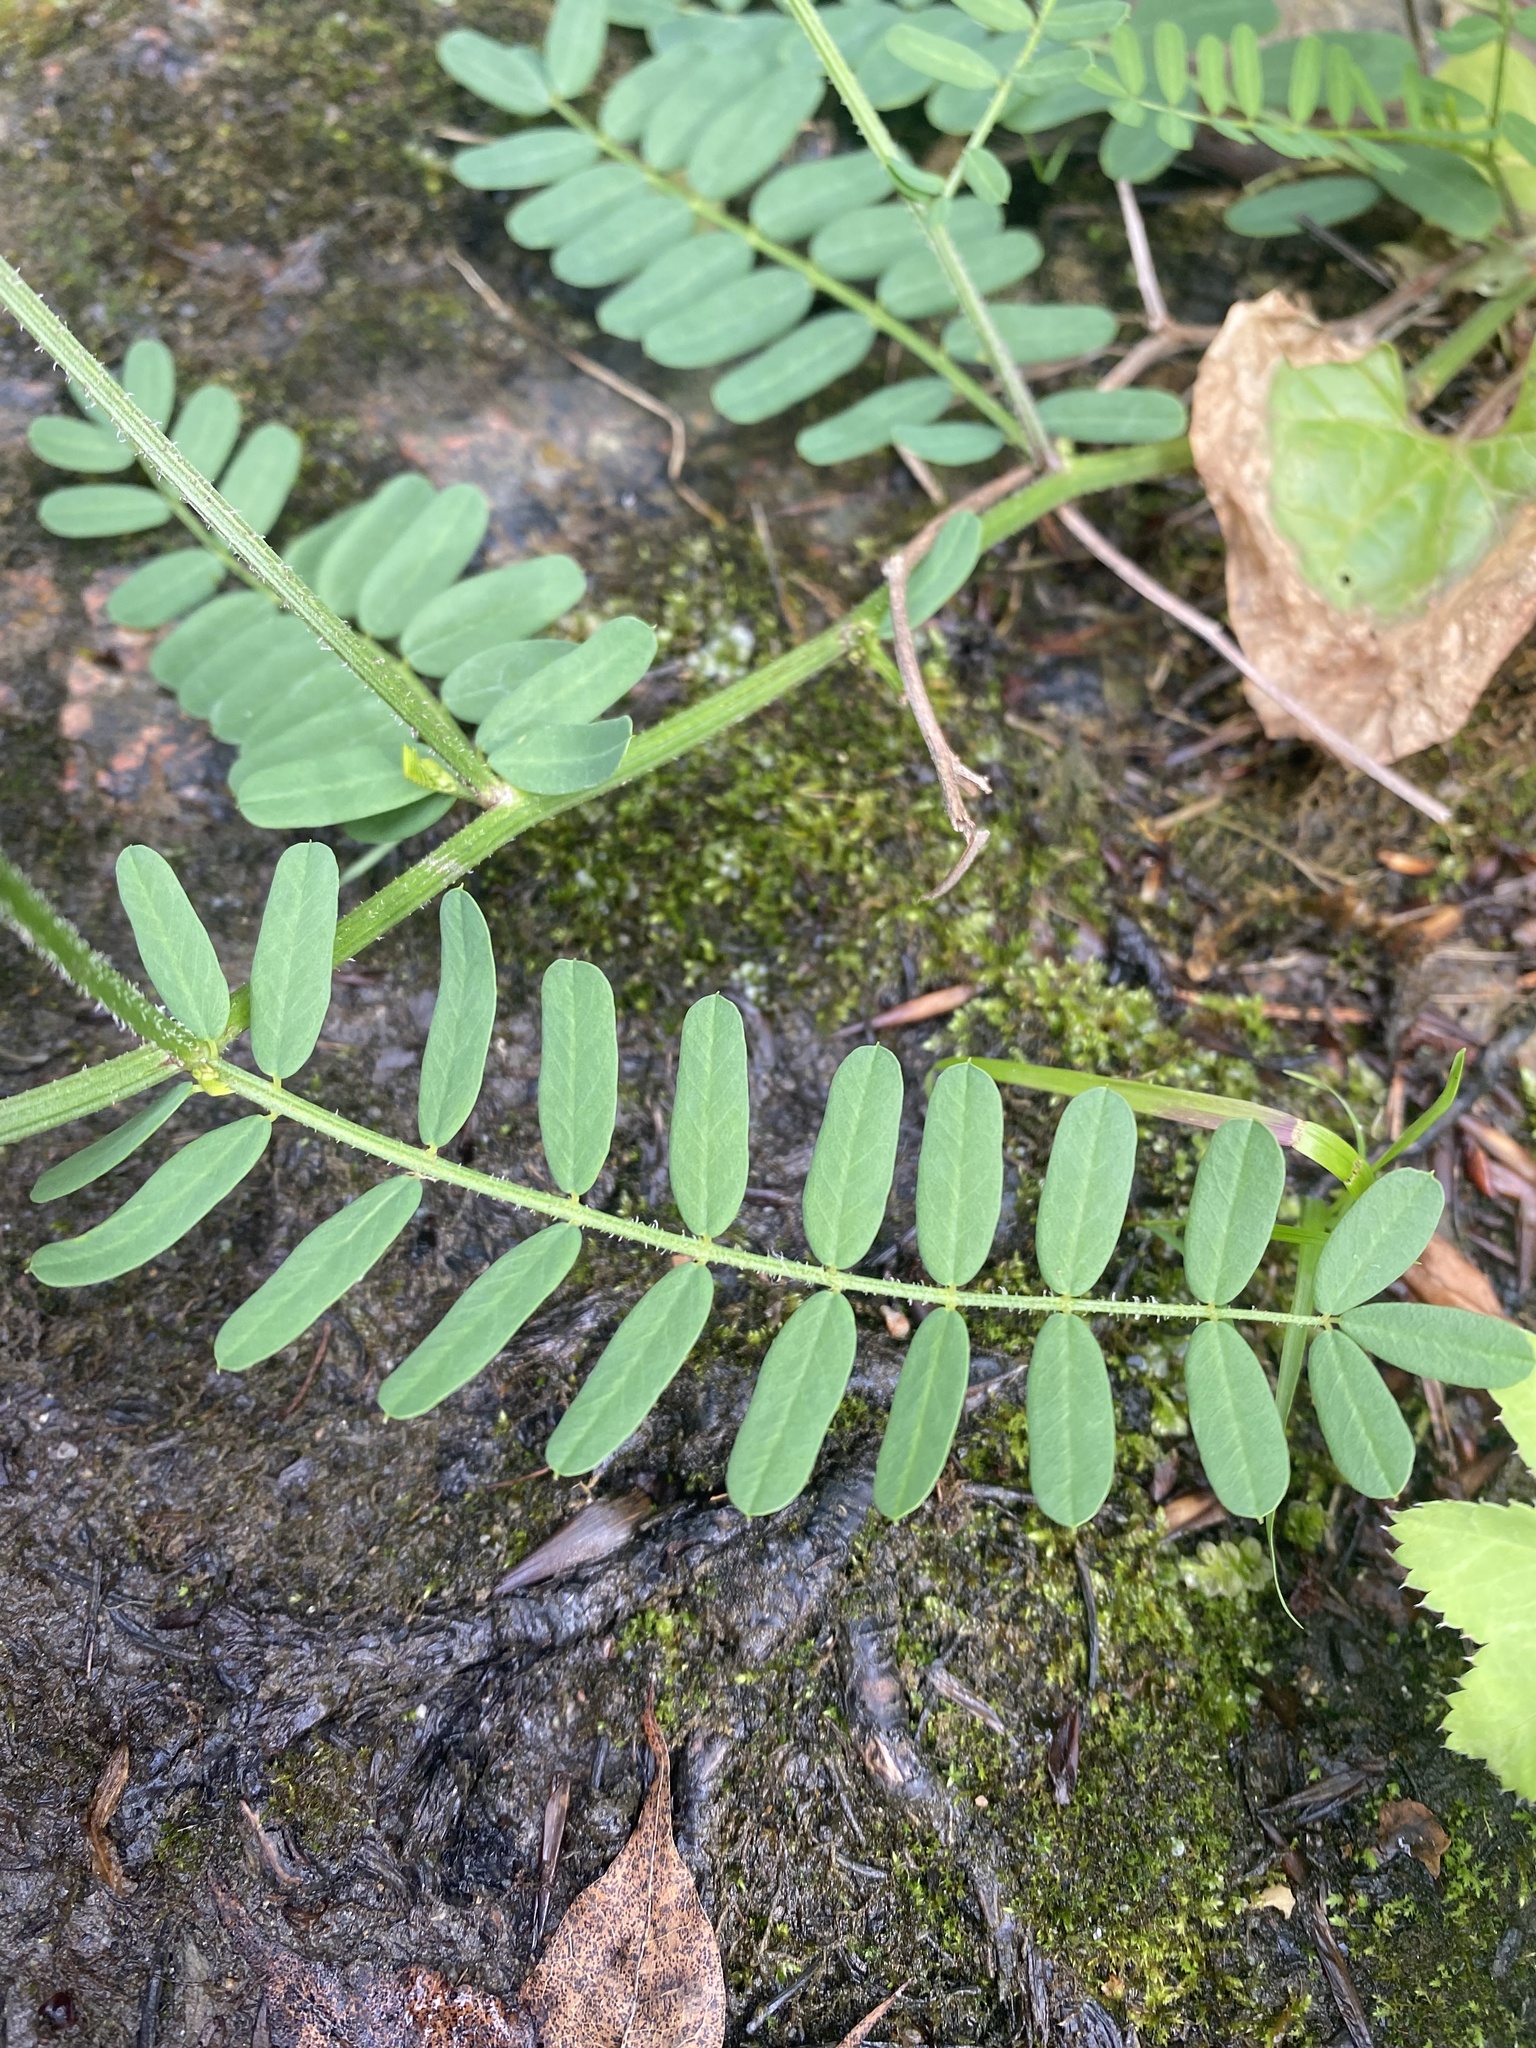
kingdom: Plantae
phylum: Tracheophyta
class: Magnoliopsida
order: Fabales
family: Fabaceae
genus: Coronilla
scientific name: Coronilla varia
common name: Crownvetch
